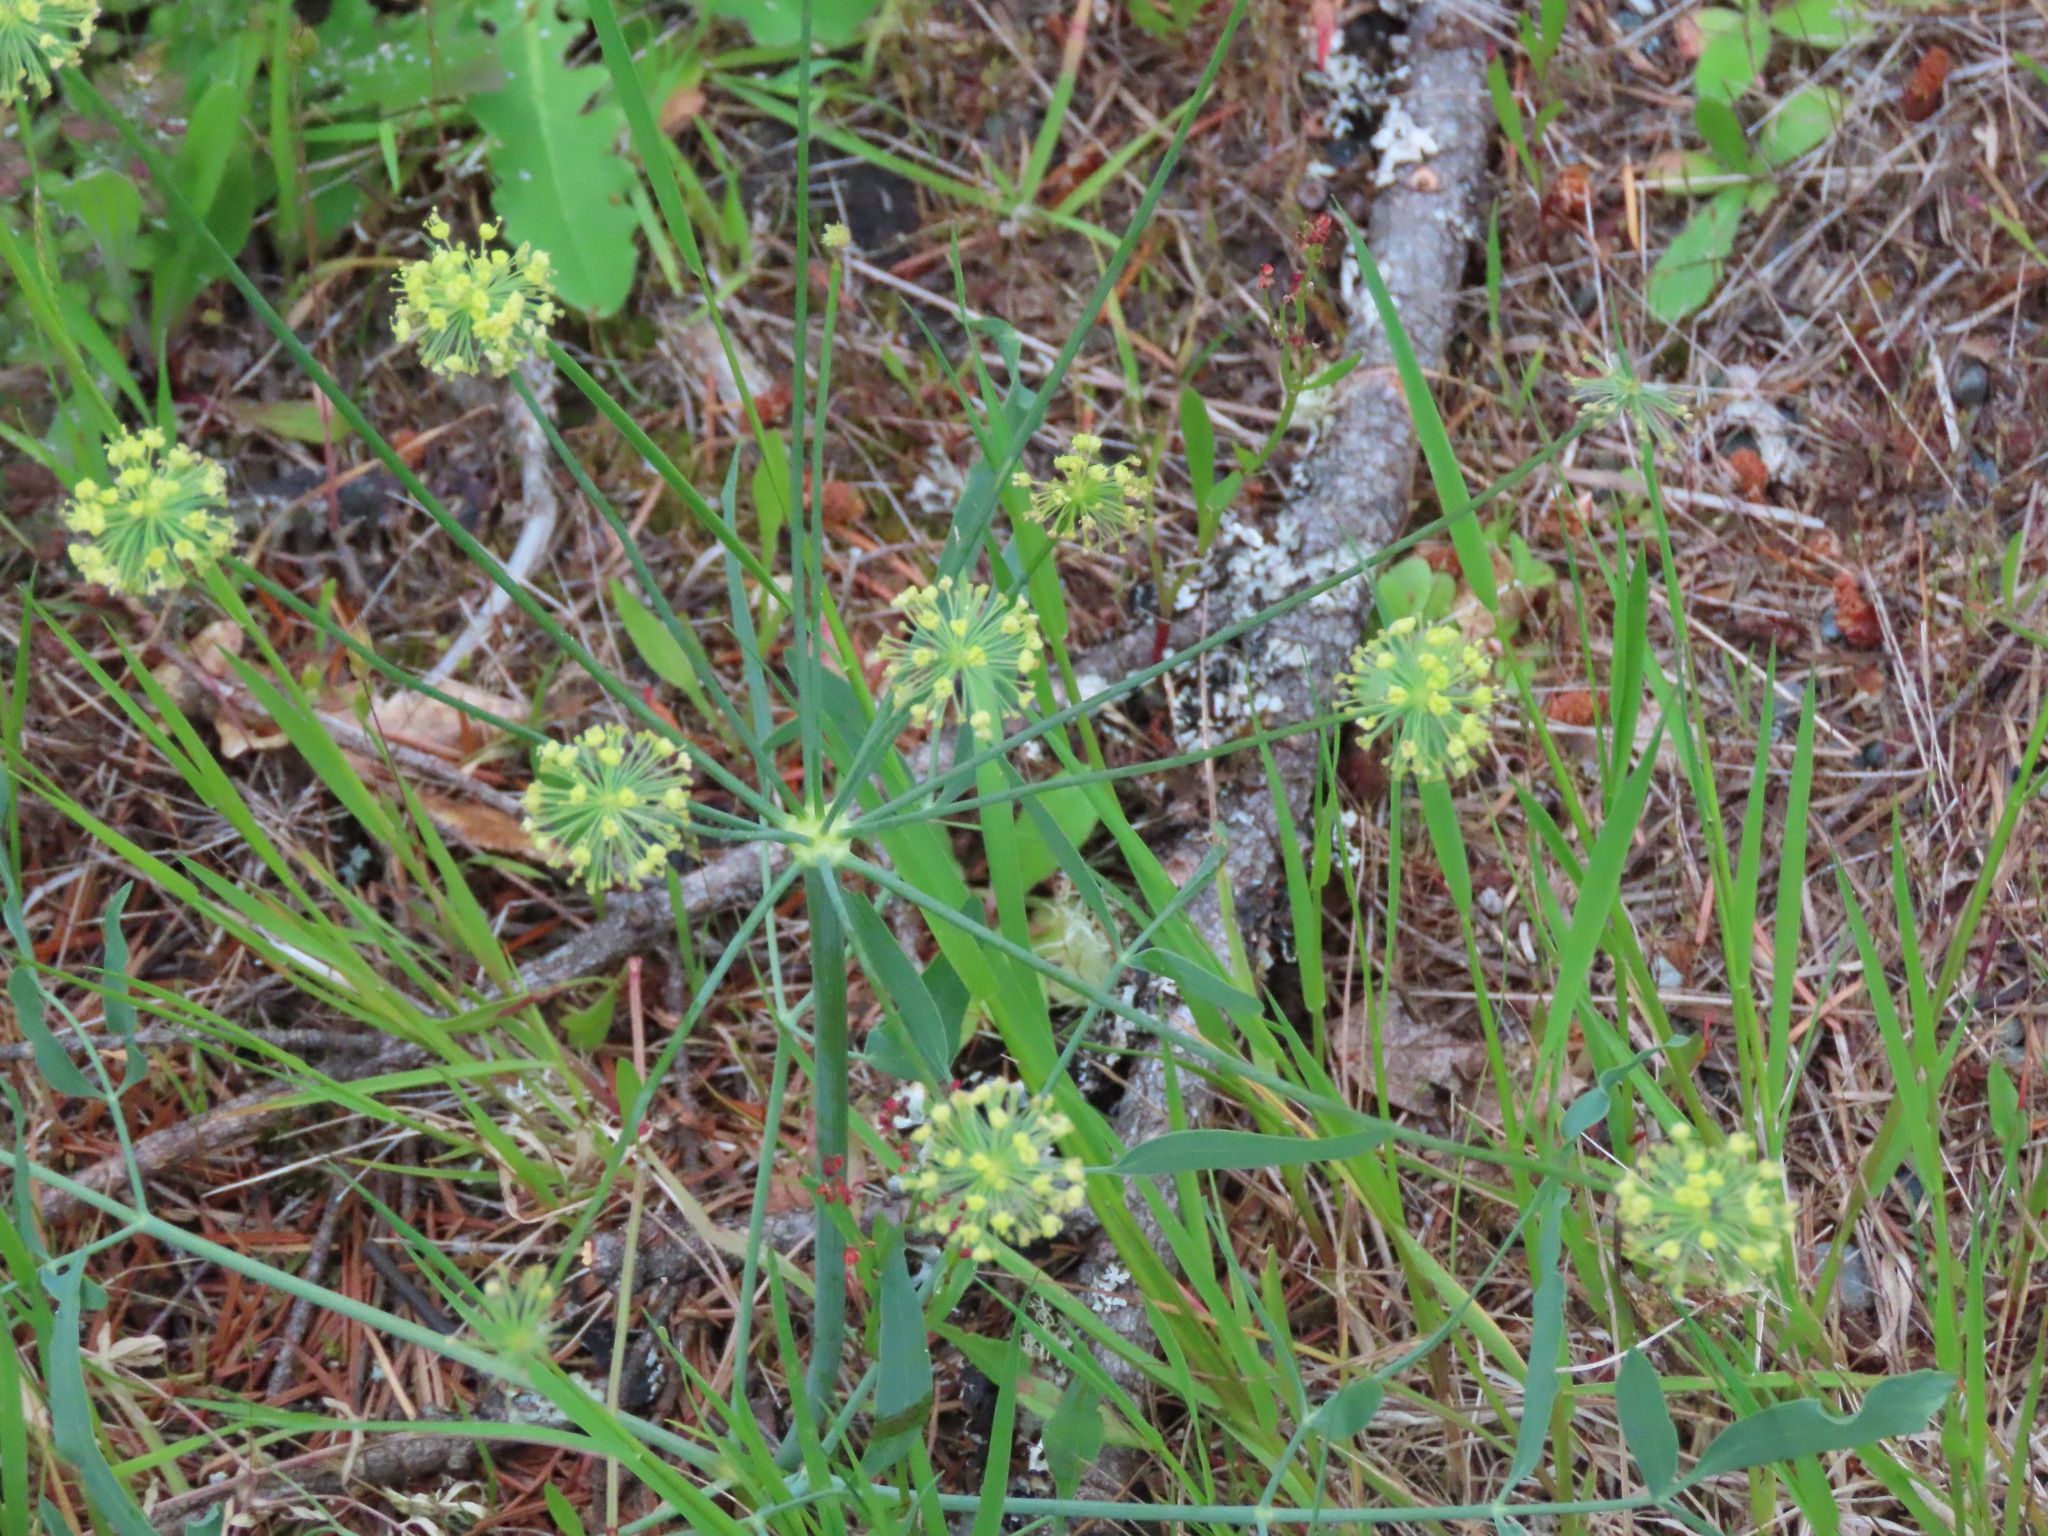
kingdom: Plantae
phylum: Tracheophyta
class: Magnoliopsida
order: Apiales
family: Apiaceae
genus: Lomatium
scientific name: Lomatium nudicaule
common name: Pestle lomatium
